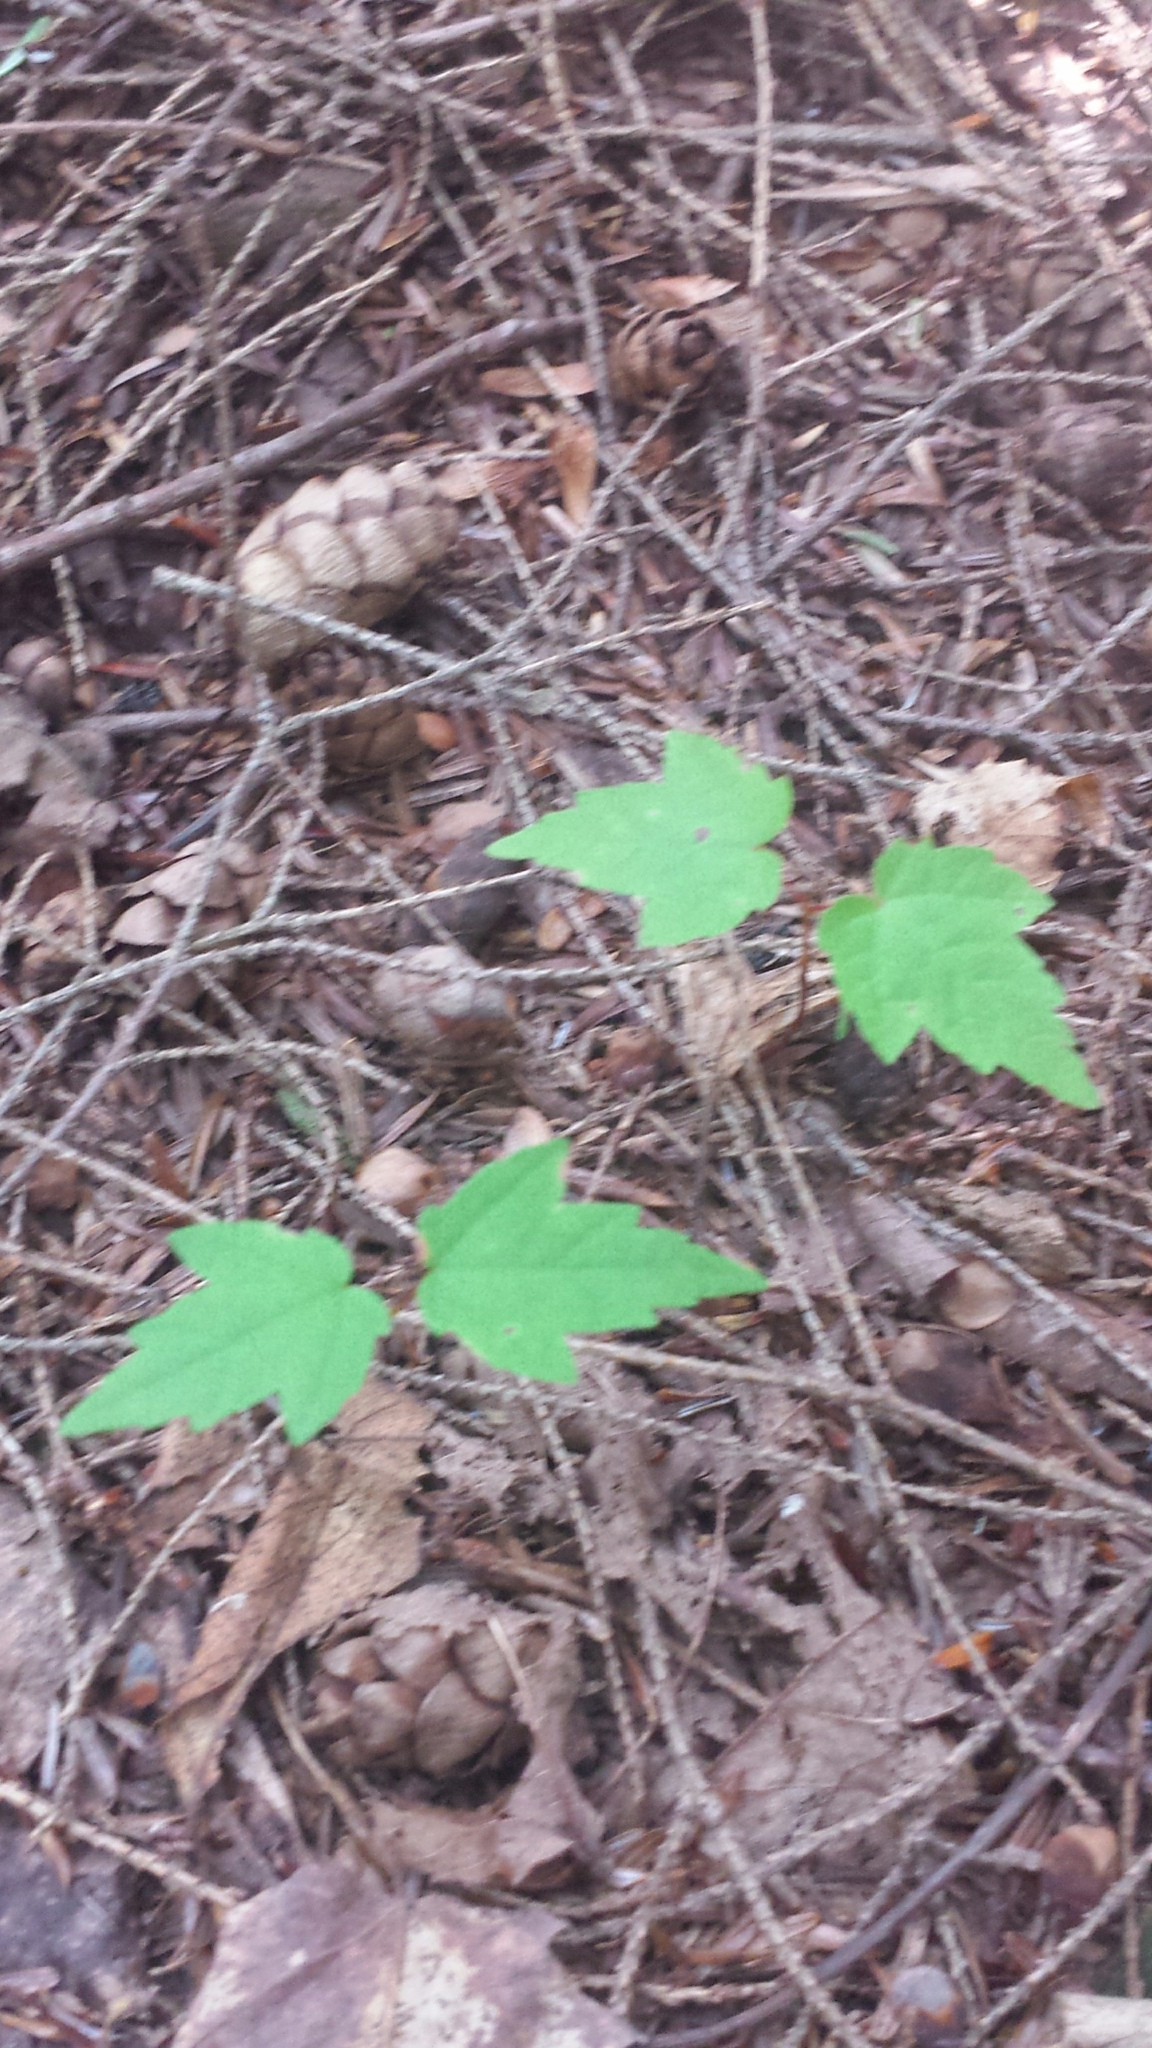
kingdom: Plantae
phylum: Tracheophyta
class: Magnoliopsida
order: Sapindales
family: Sapindaceae
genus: Acer
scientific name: Acer rubrum
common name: Red maple
